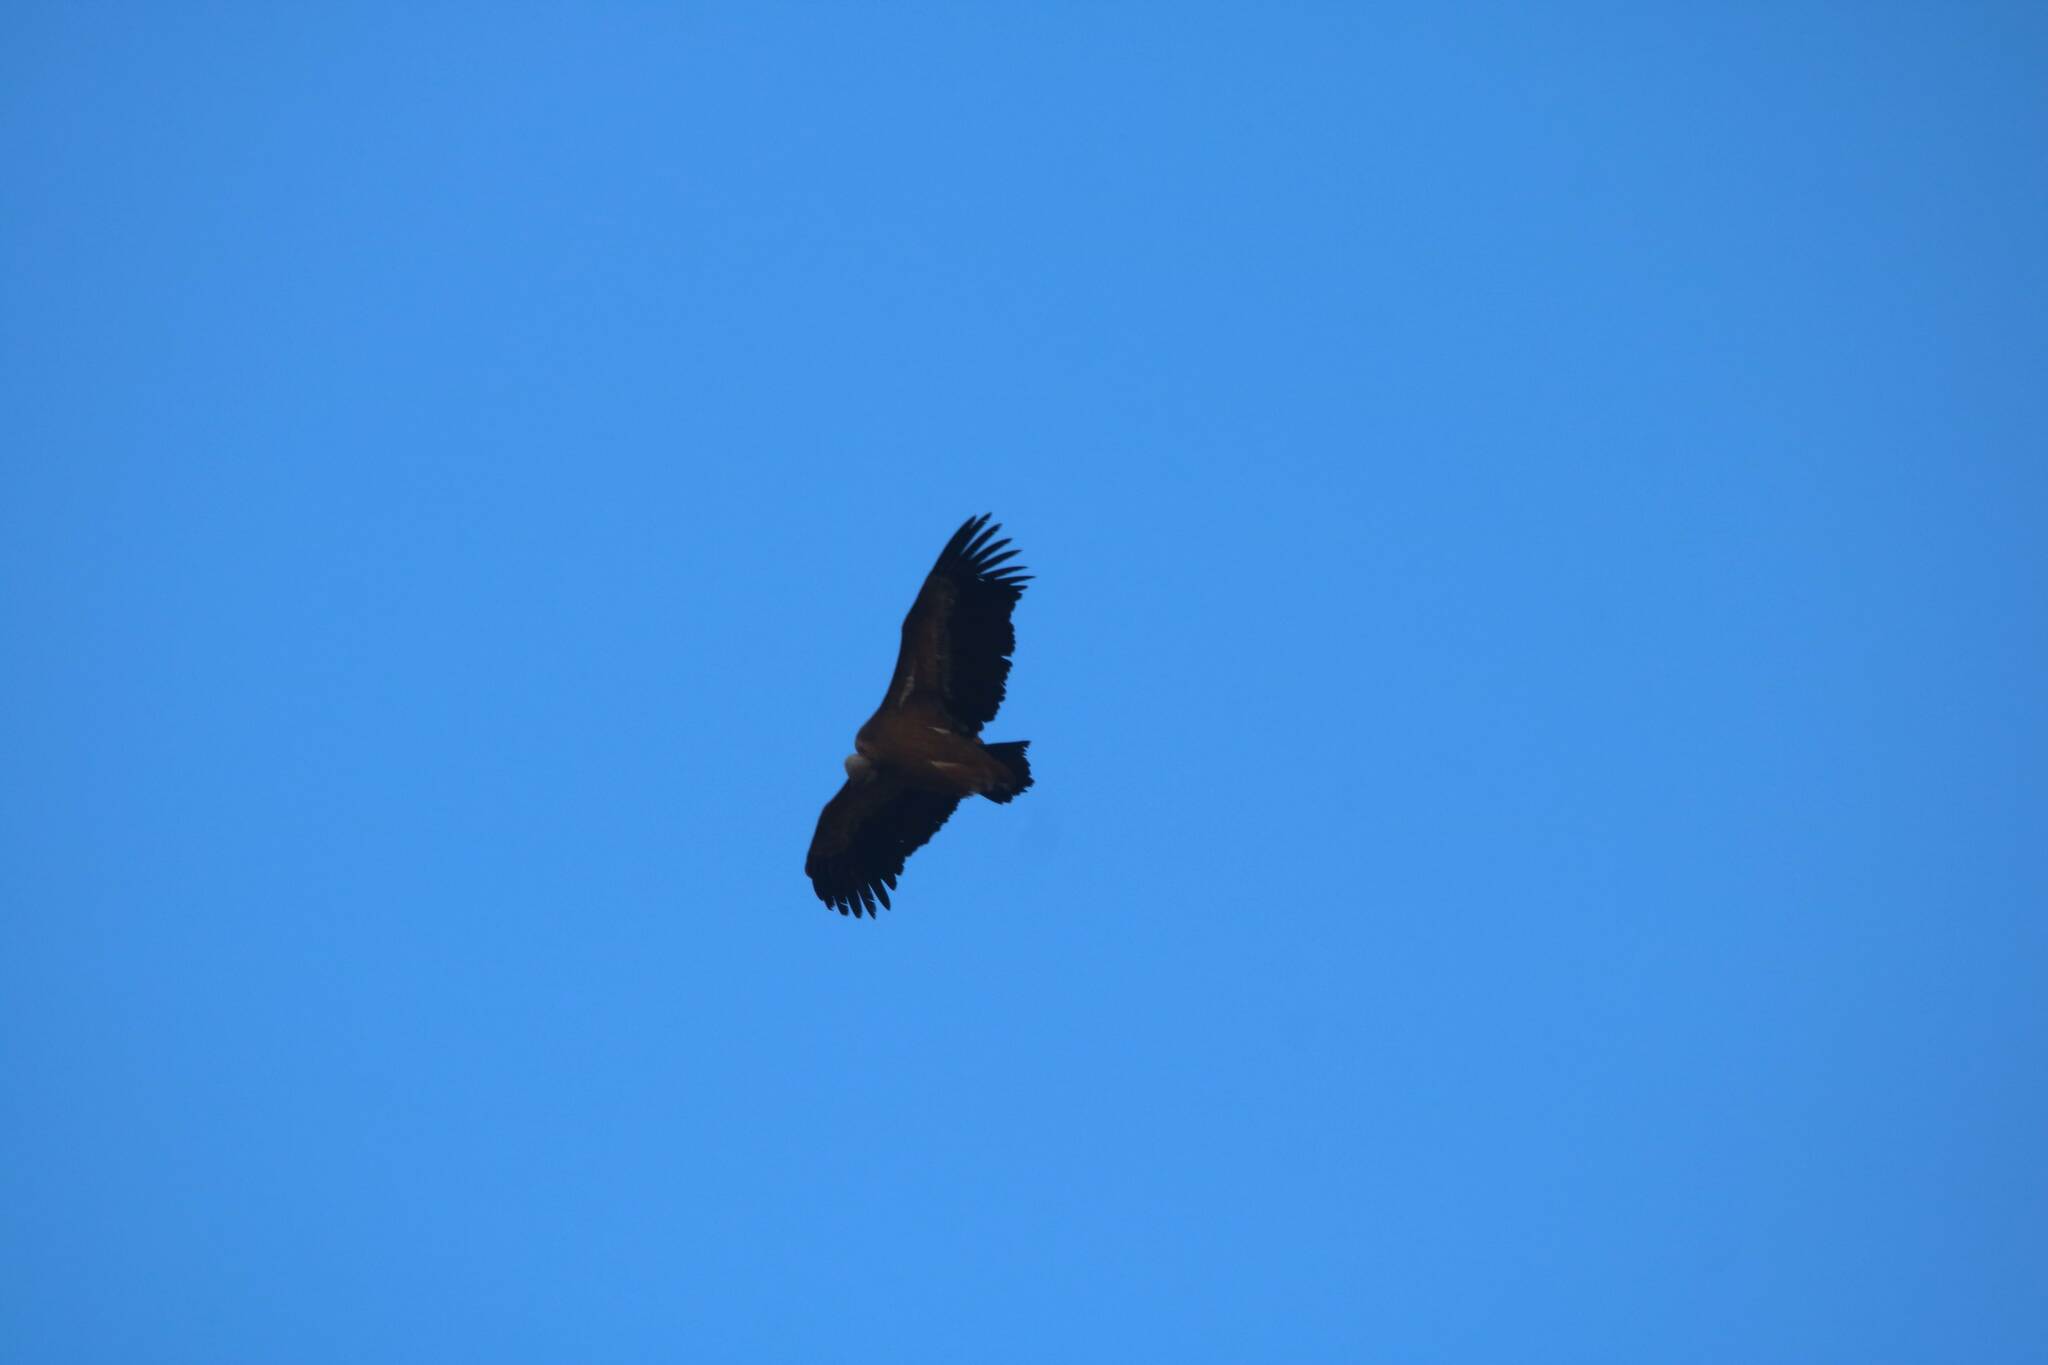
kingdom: Animalia
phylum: Chordata
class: Aves
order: Accipitriformes
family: Accipitridae
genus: Gyps
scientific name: Gyps fulvus
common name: Griffon vulture
